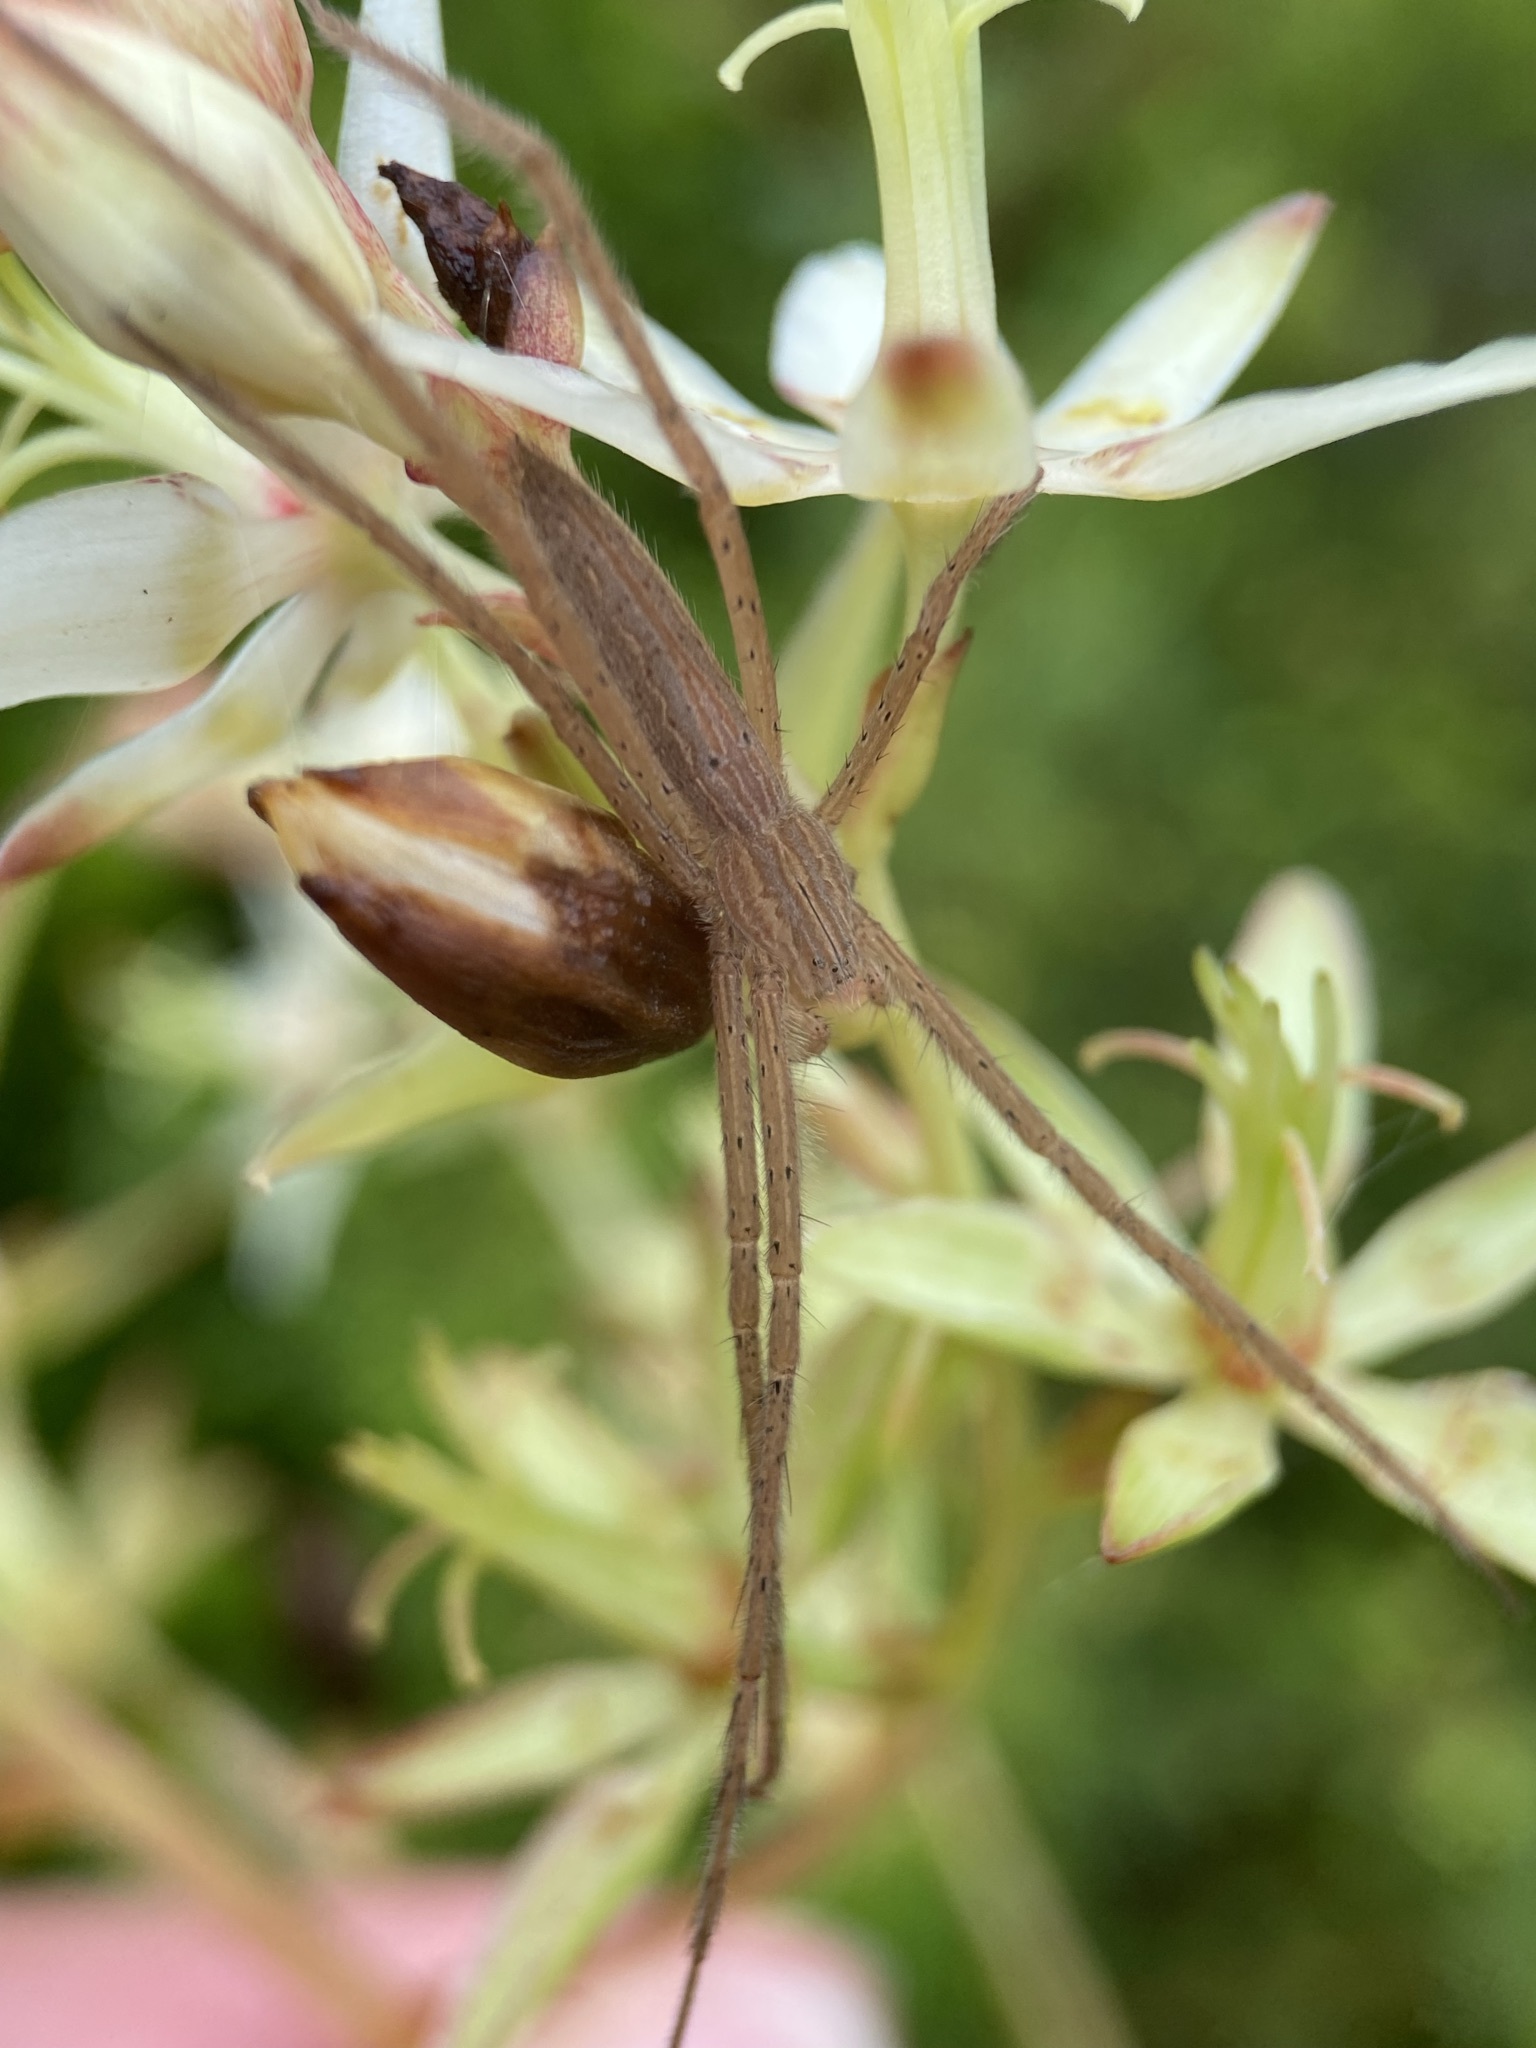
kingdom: Animalia
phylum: Arthropoda
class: Arachnida
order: Araneae
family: Pisauridae
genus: Pisaurina
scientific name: Pisaurina undulata
